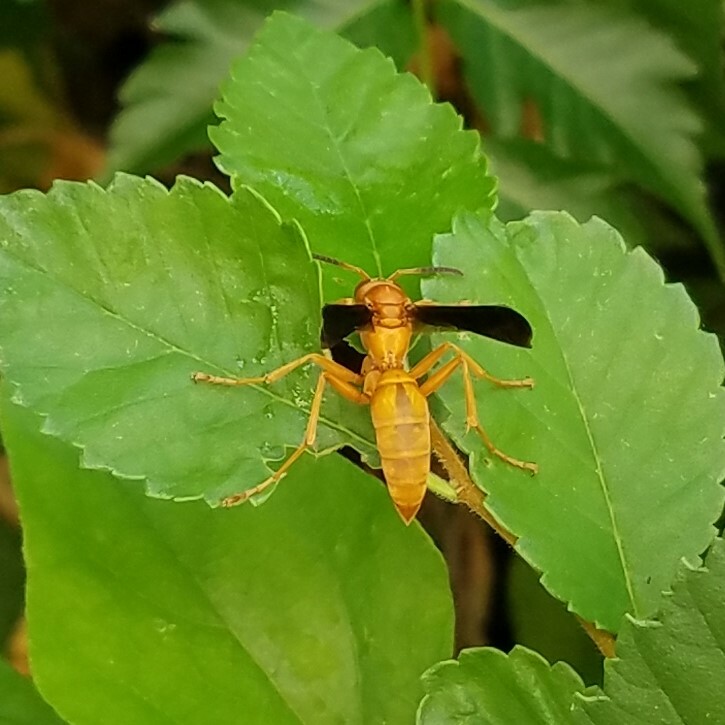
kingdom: Animalia
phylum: Arthropoda
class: Insecta
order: Hymenoptera
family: Vespidae
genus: Fuscopolistes
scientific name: Fuscopolistes
